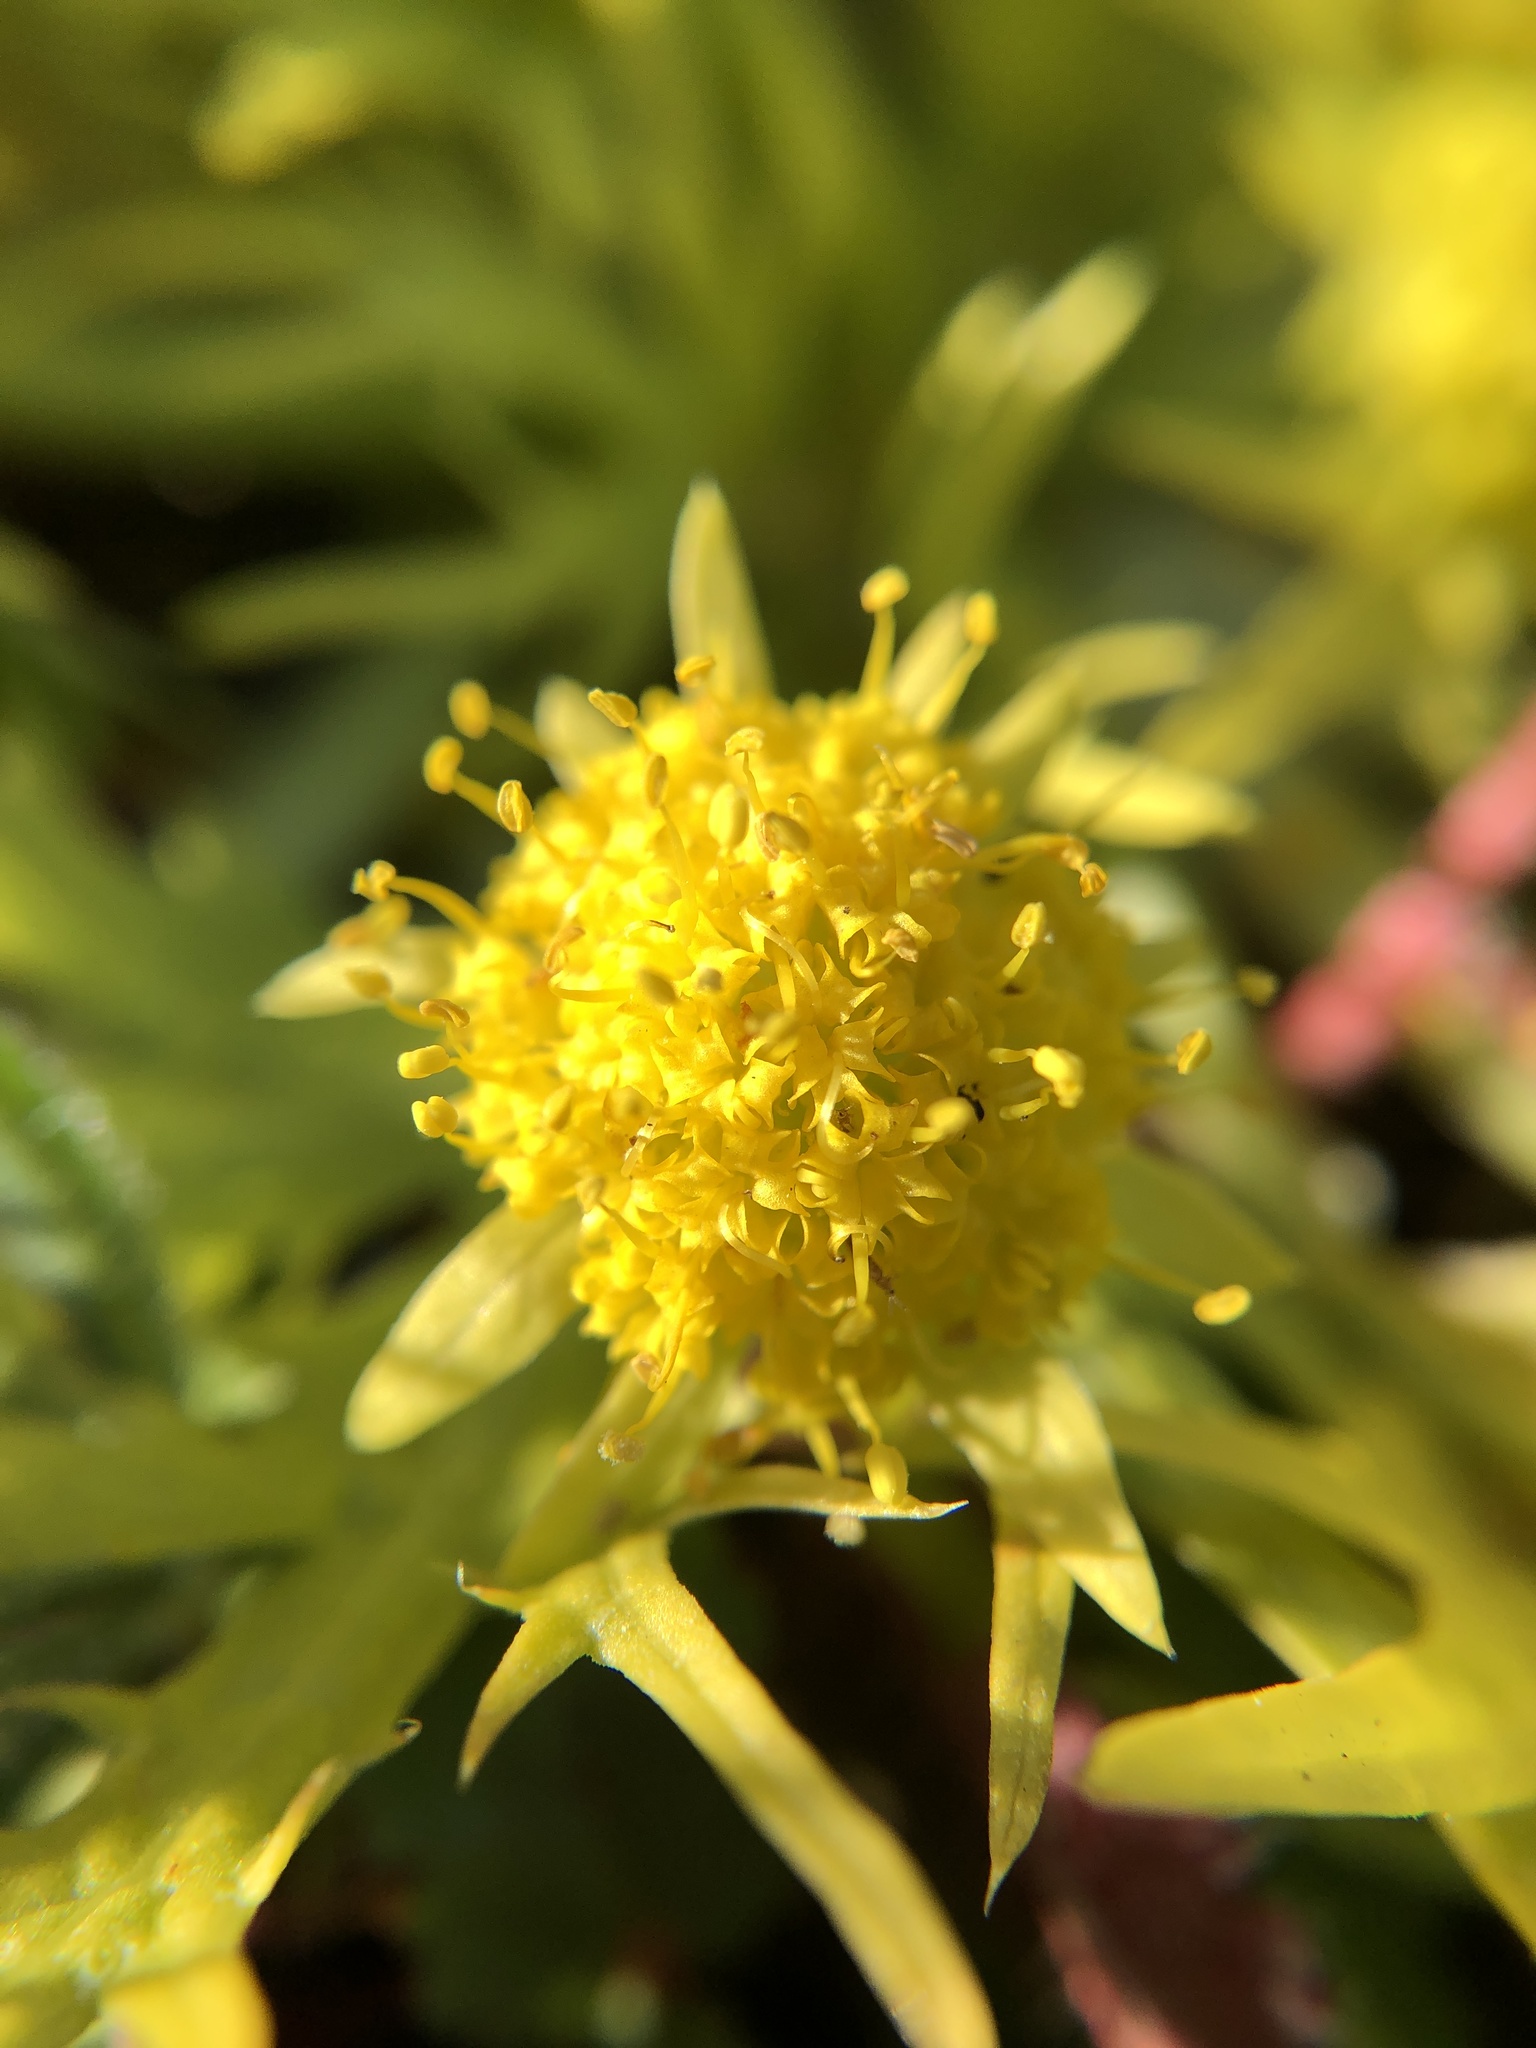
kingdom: Plantae
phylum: Tracheophyta
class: Magnoliopsida
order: Apiales
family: Apiaceae
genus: Sanicula
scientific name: Sanicula arctopoides
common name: Footsteps-of-spring
